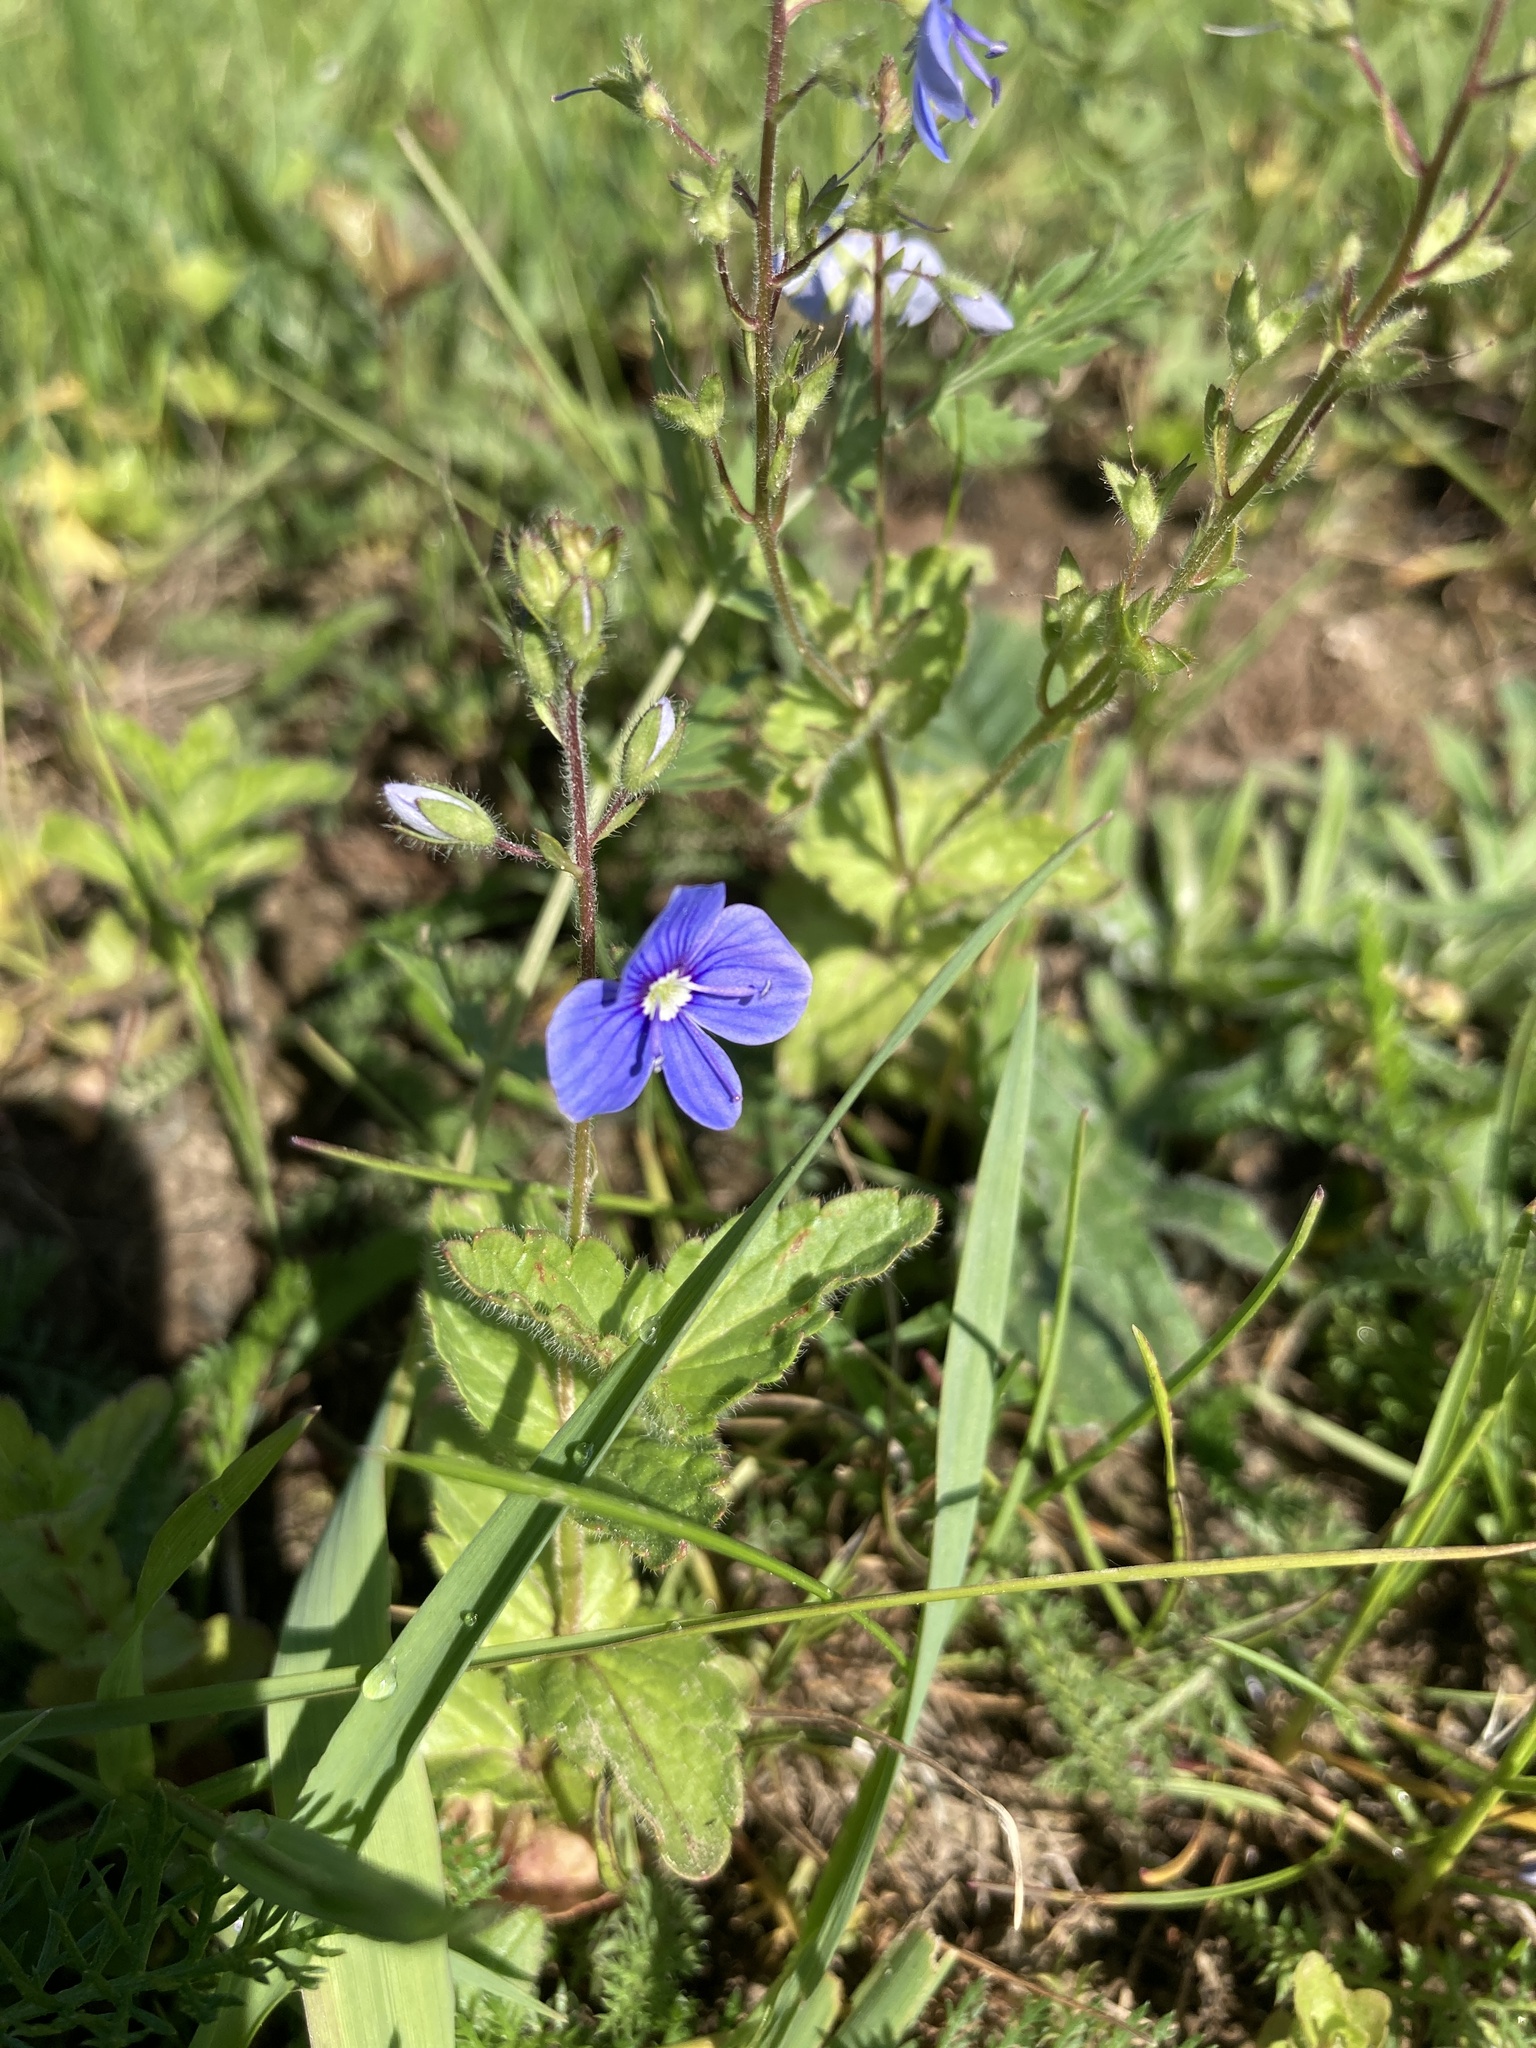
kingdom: Plantae
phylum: Tracheophyta
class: Magnoliopsida
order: Lamiales
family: Plantaginaceae
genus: Veronica
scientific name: Veronica chamaedrys
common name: Germander speedwell
